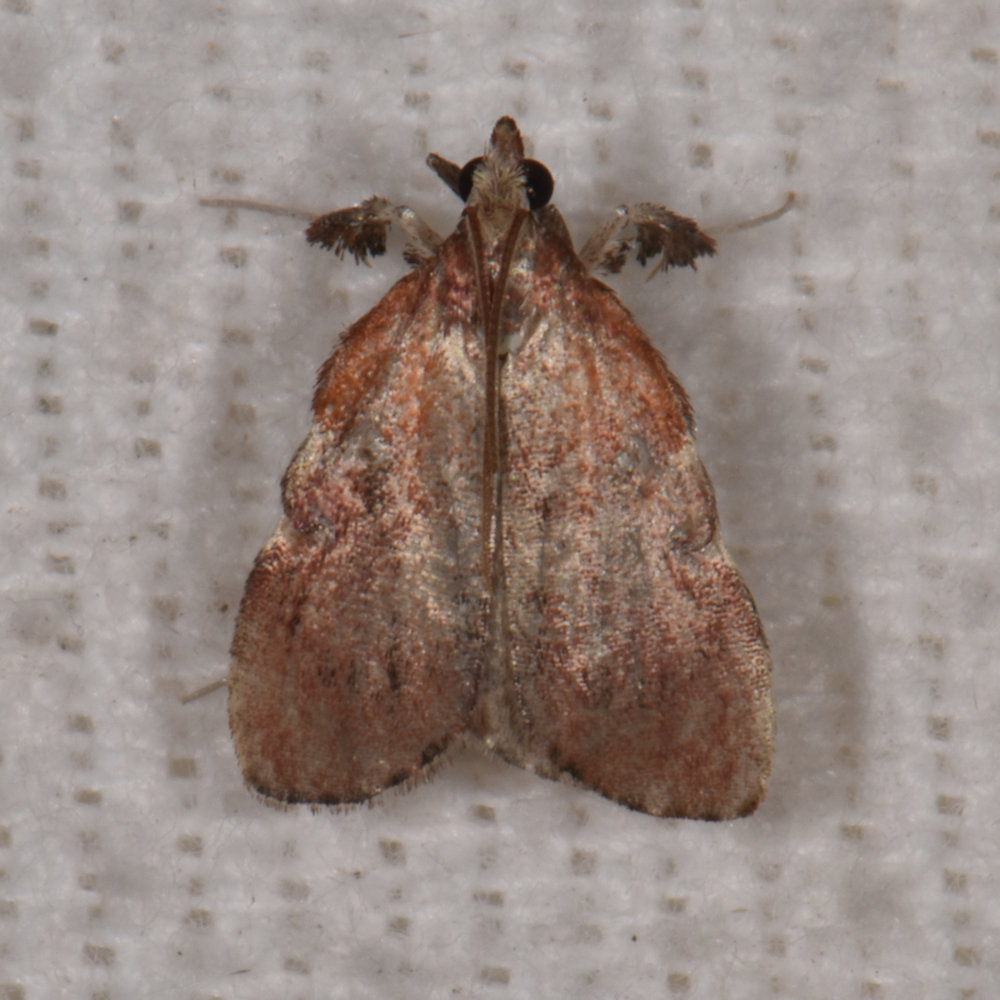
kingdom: Animalia
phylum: Arthropoda
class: Insecta
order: Lepidoptera
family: Pyralidae
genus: Galasa
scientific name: Galasa nigrinodis
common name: Boxwood leaftier moth
